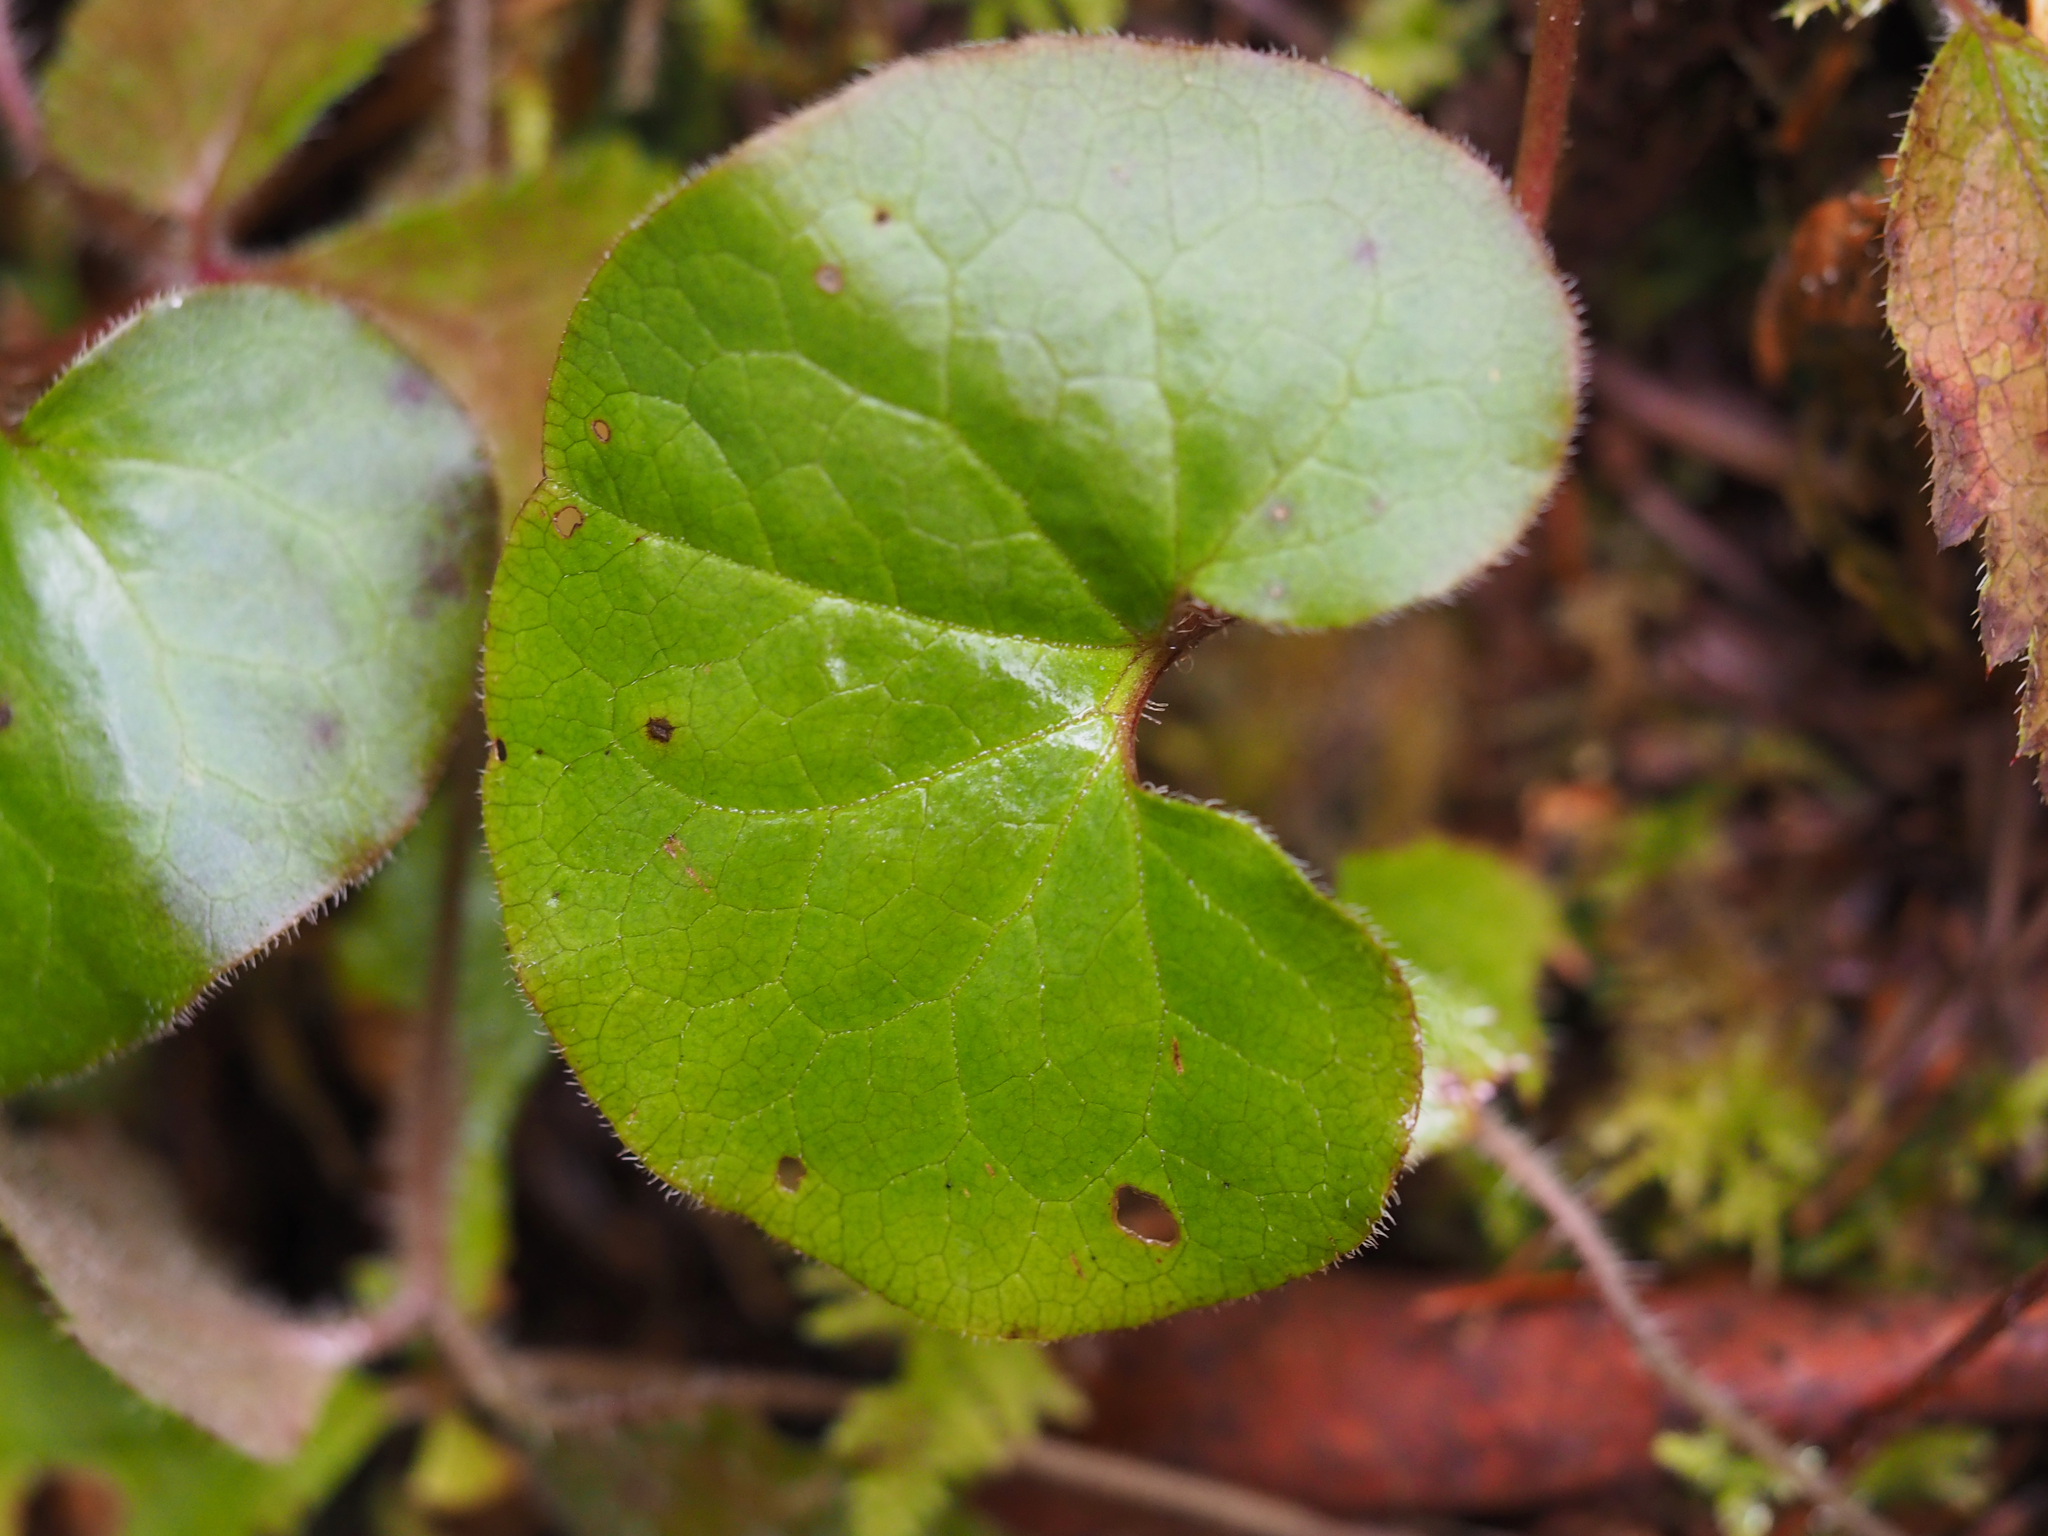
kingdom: Plantae
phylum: Tracheophyta
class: Magnoliopsida
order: Piperales
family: Aristolochiaceae
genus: Asarum
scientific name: Asarum caudatum
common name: Wild ginger
